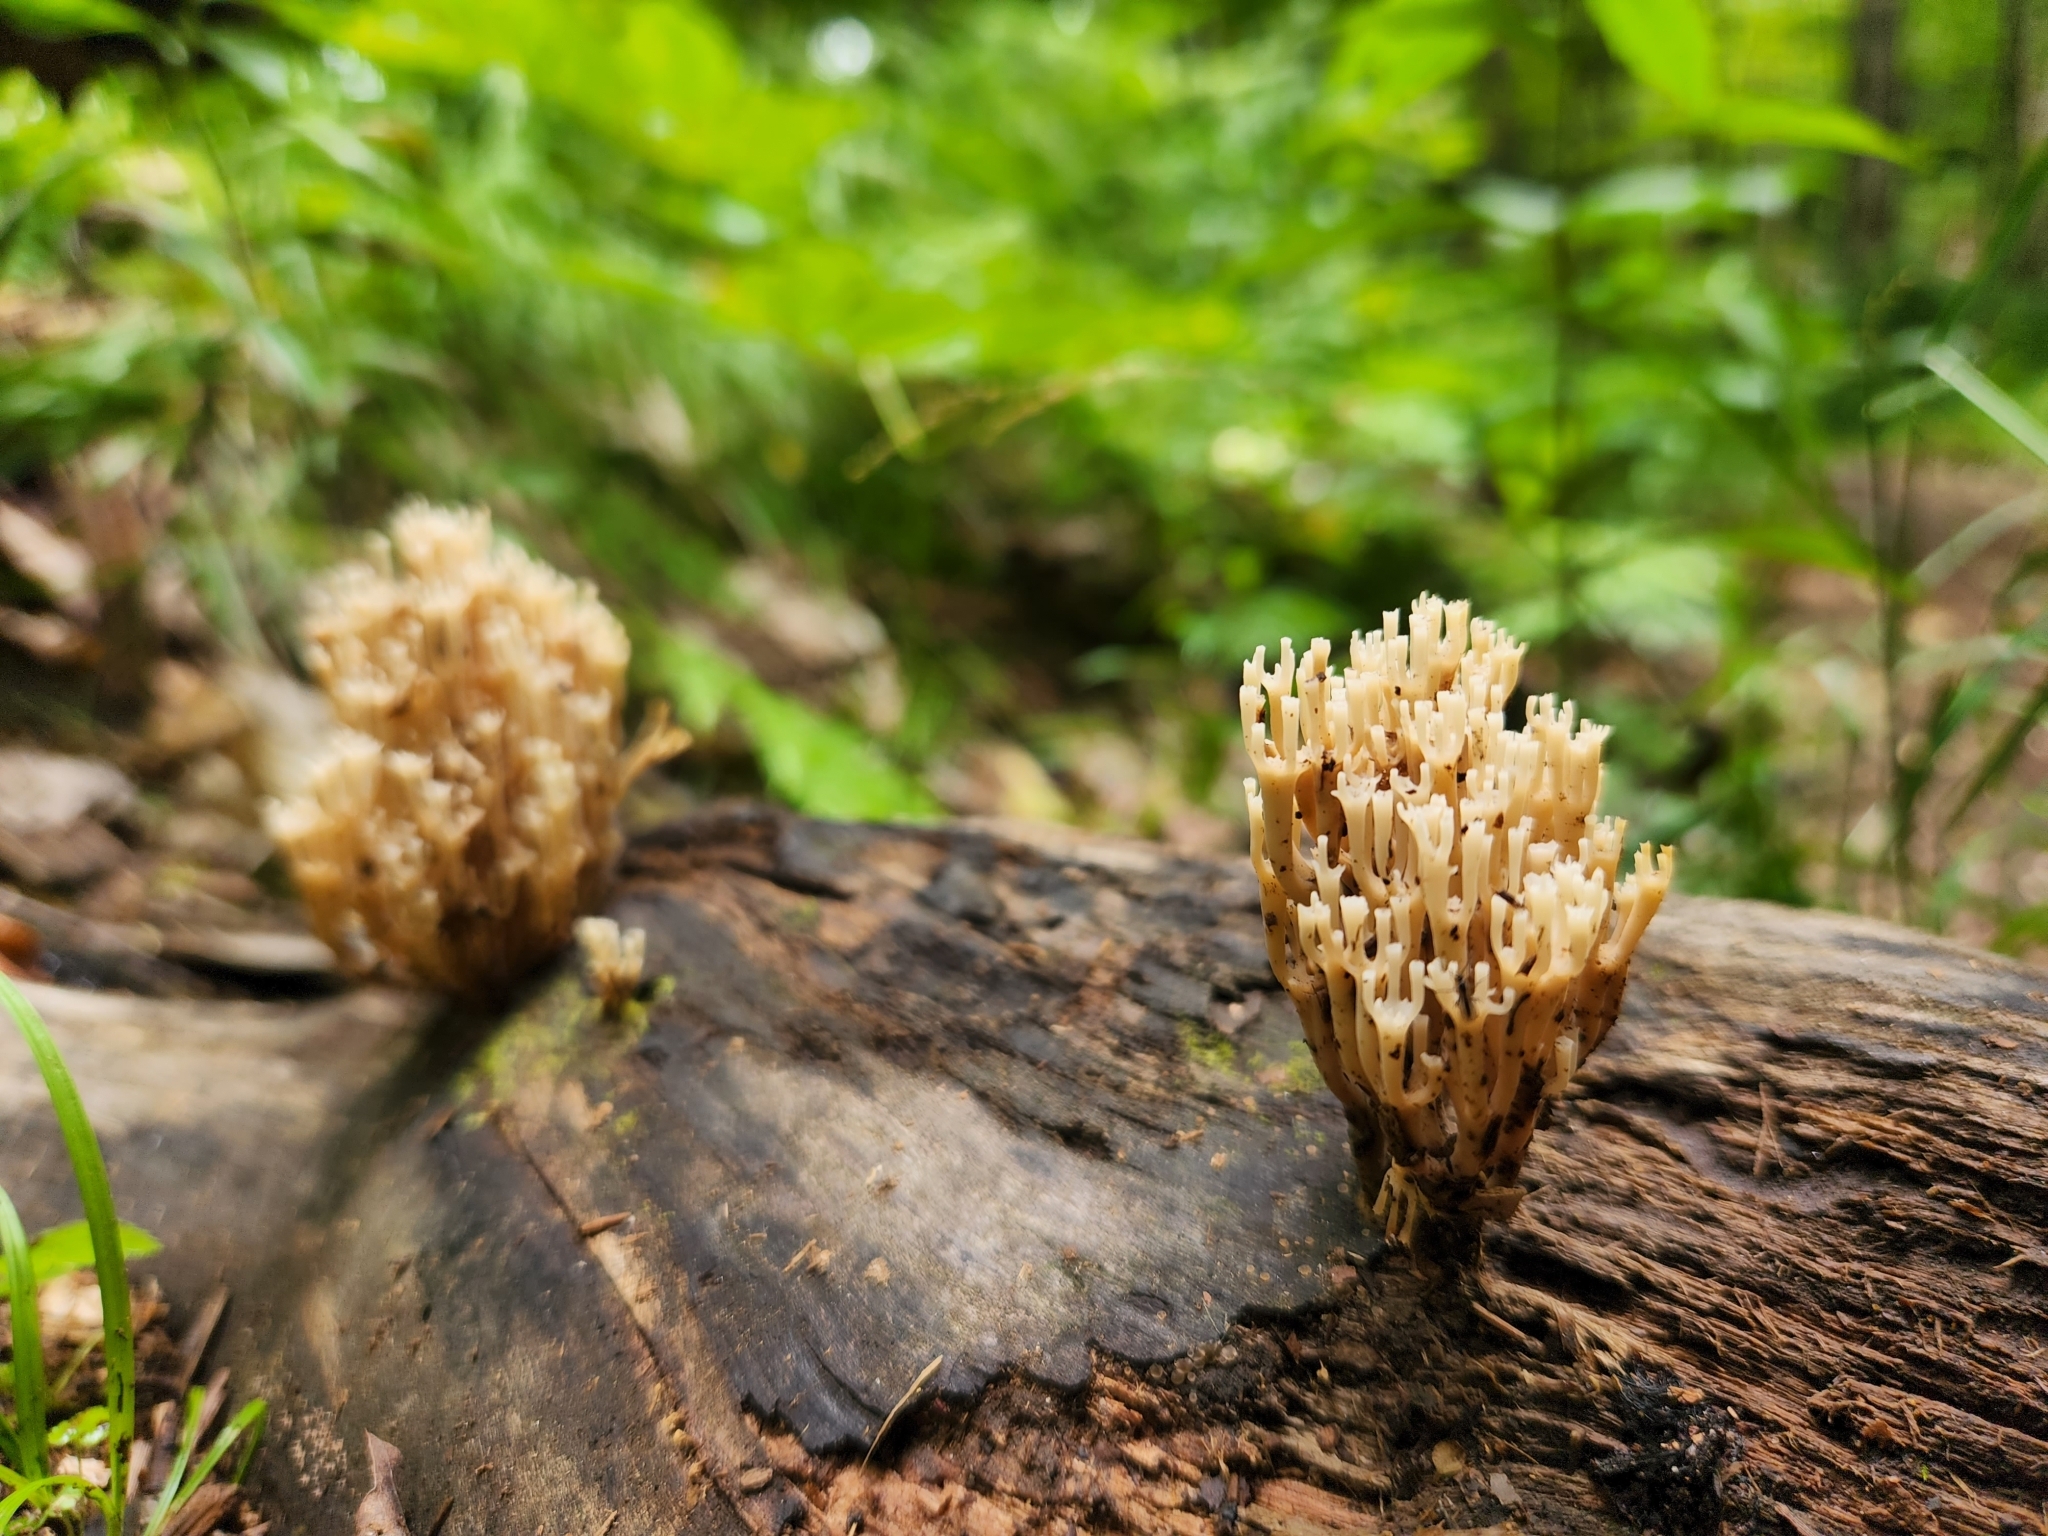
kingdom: Fungi
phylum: Basidiomycota
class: Agaricomycetes
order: Russulales
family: Auriscalpiaceae
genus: Artomyces
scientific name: Artomyces pyxidatus
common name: Crown-tipped coral fungus
